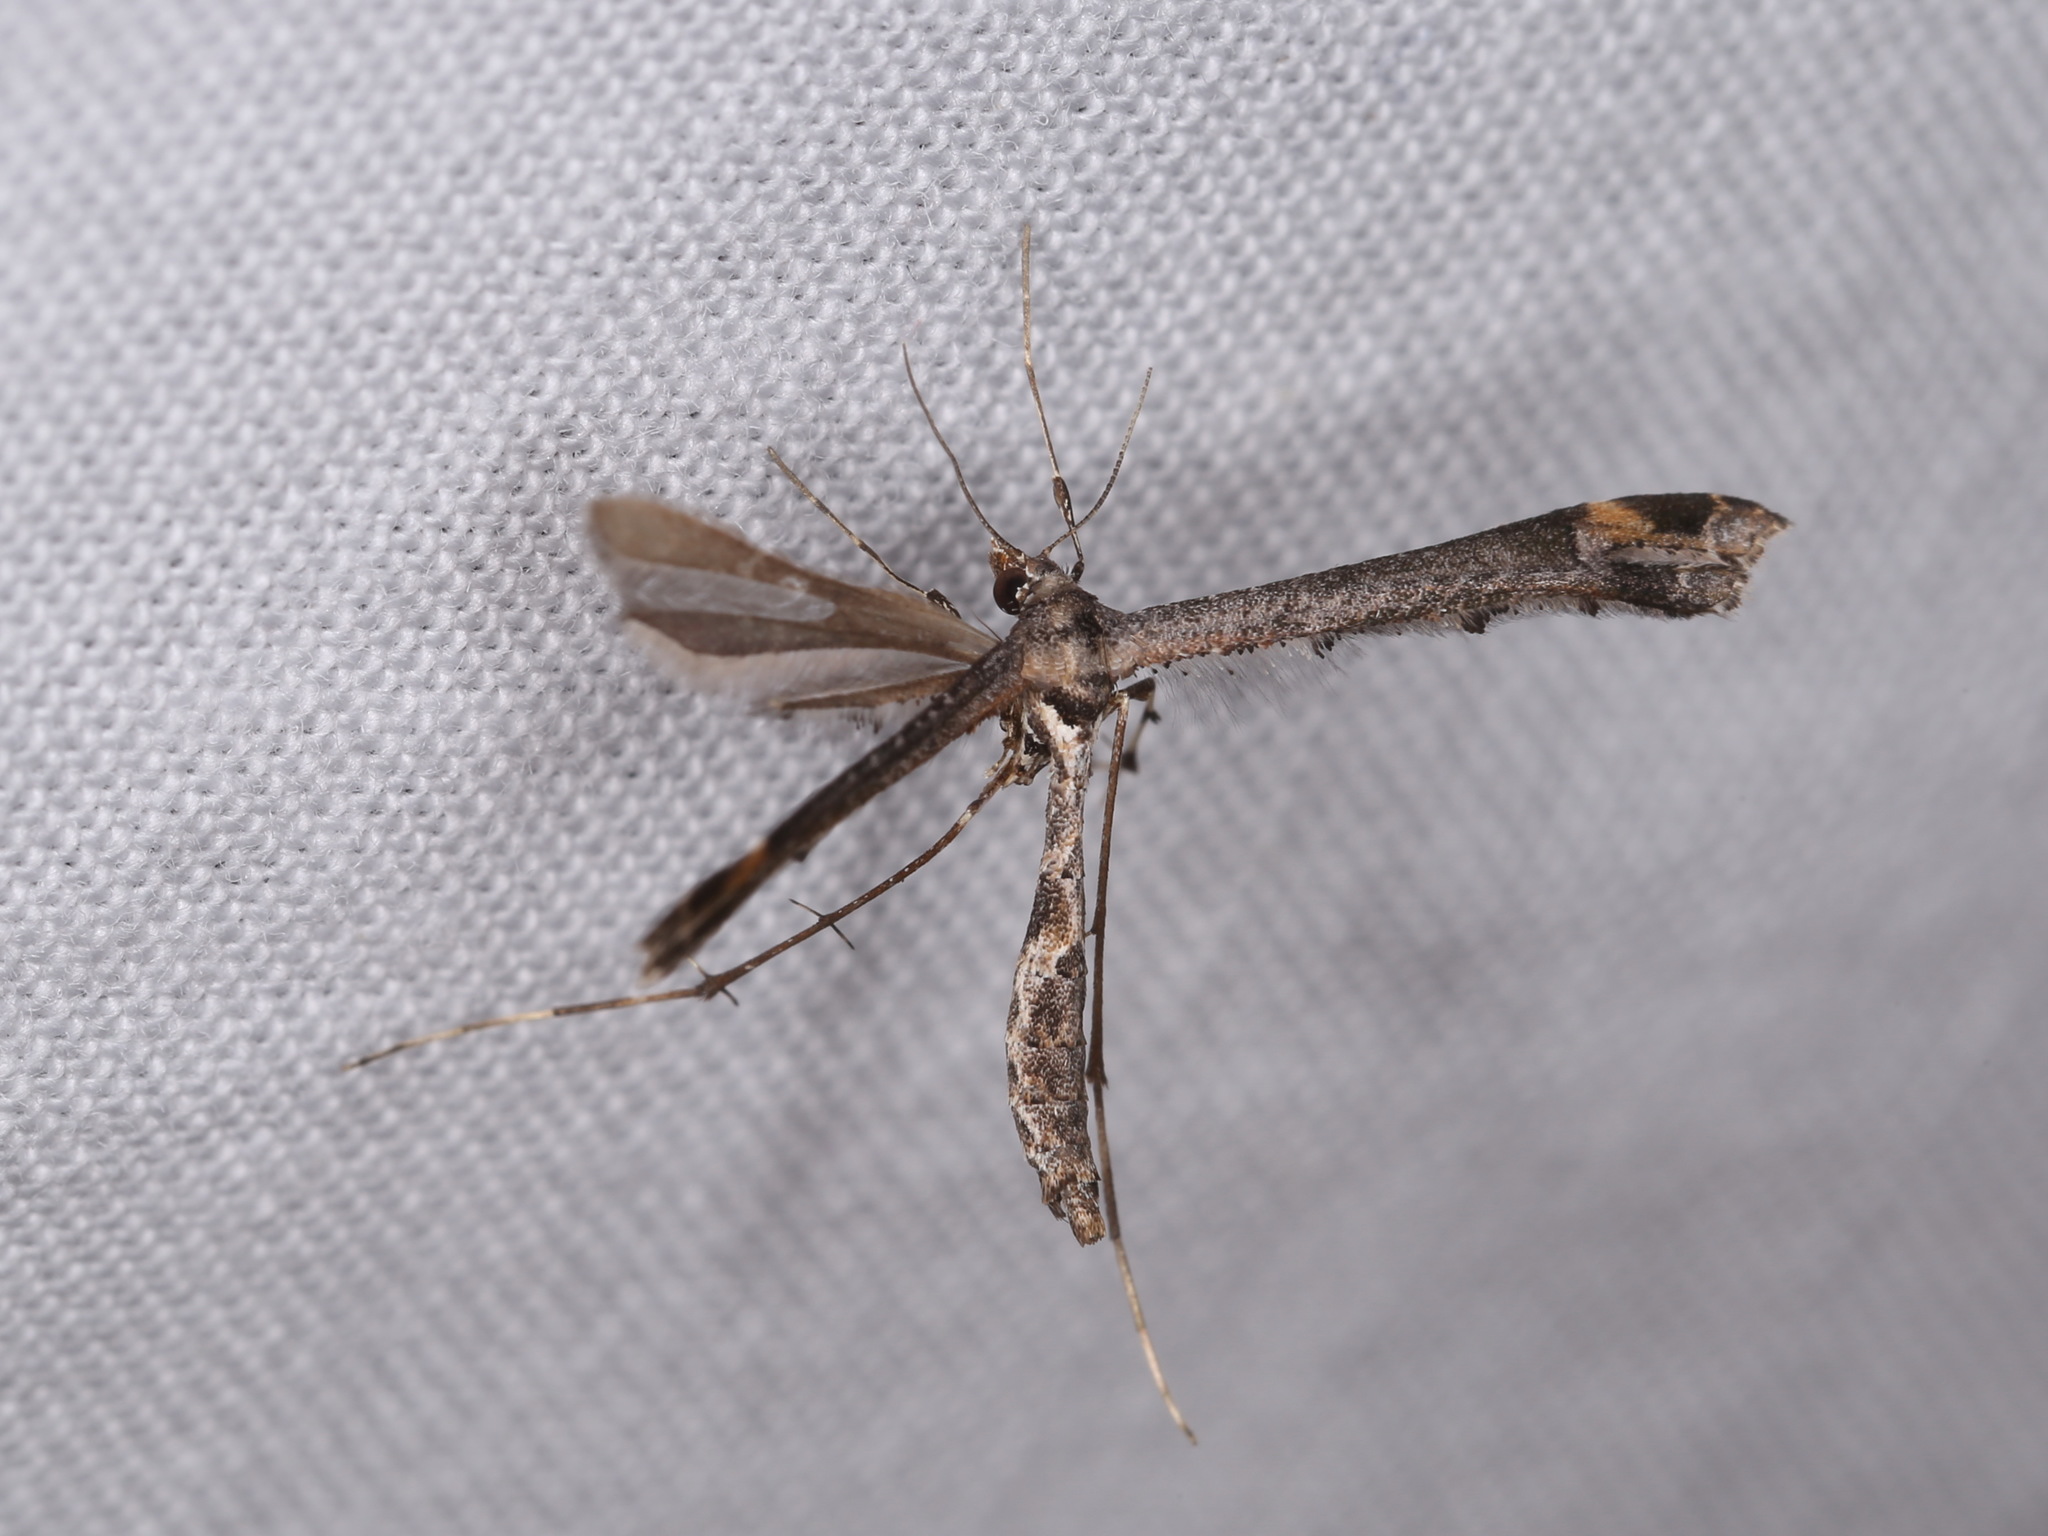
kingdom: Animalia
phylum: Arthropoda
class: Insecta
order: Lepidoptera
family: Pterophoridae
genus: Anstenoptilia
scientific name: Anstenoptilia marmarodactyla
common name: Moth
